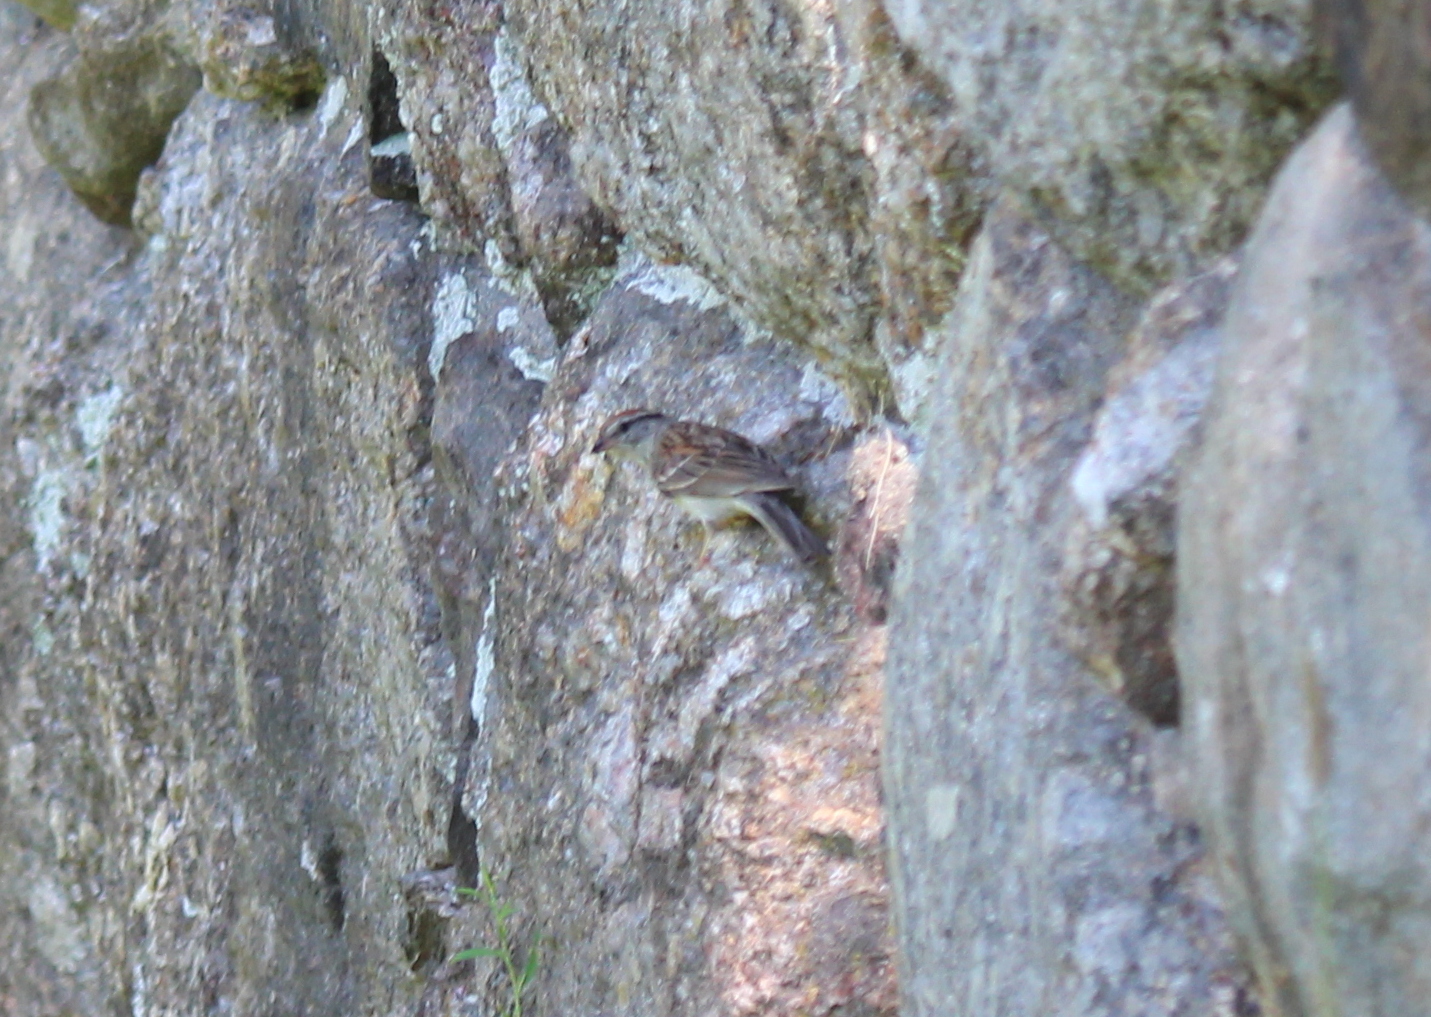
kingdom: Animalia
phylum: Chordata
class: Aves
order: Passeriformes
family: Passerellidae
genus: Spizella
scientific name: Spizella passerina
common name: Chipping sparrow
